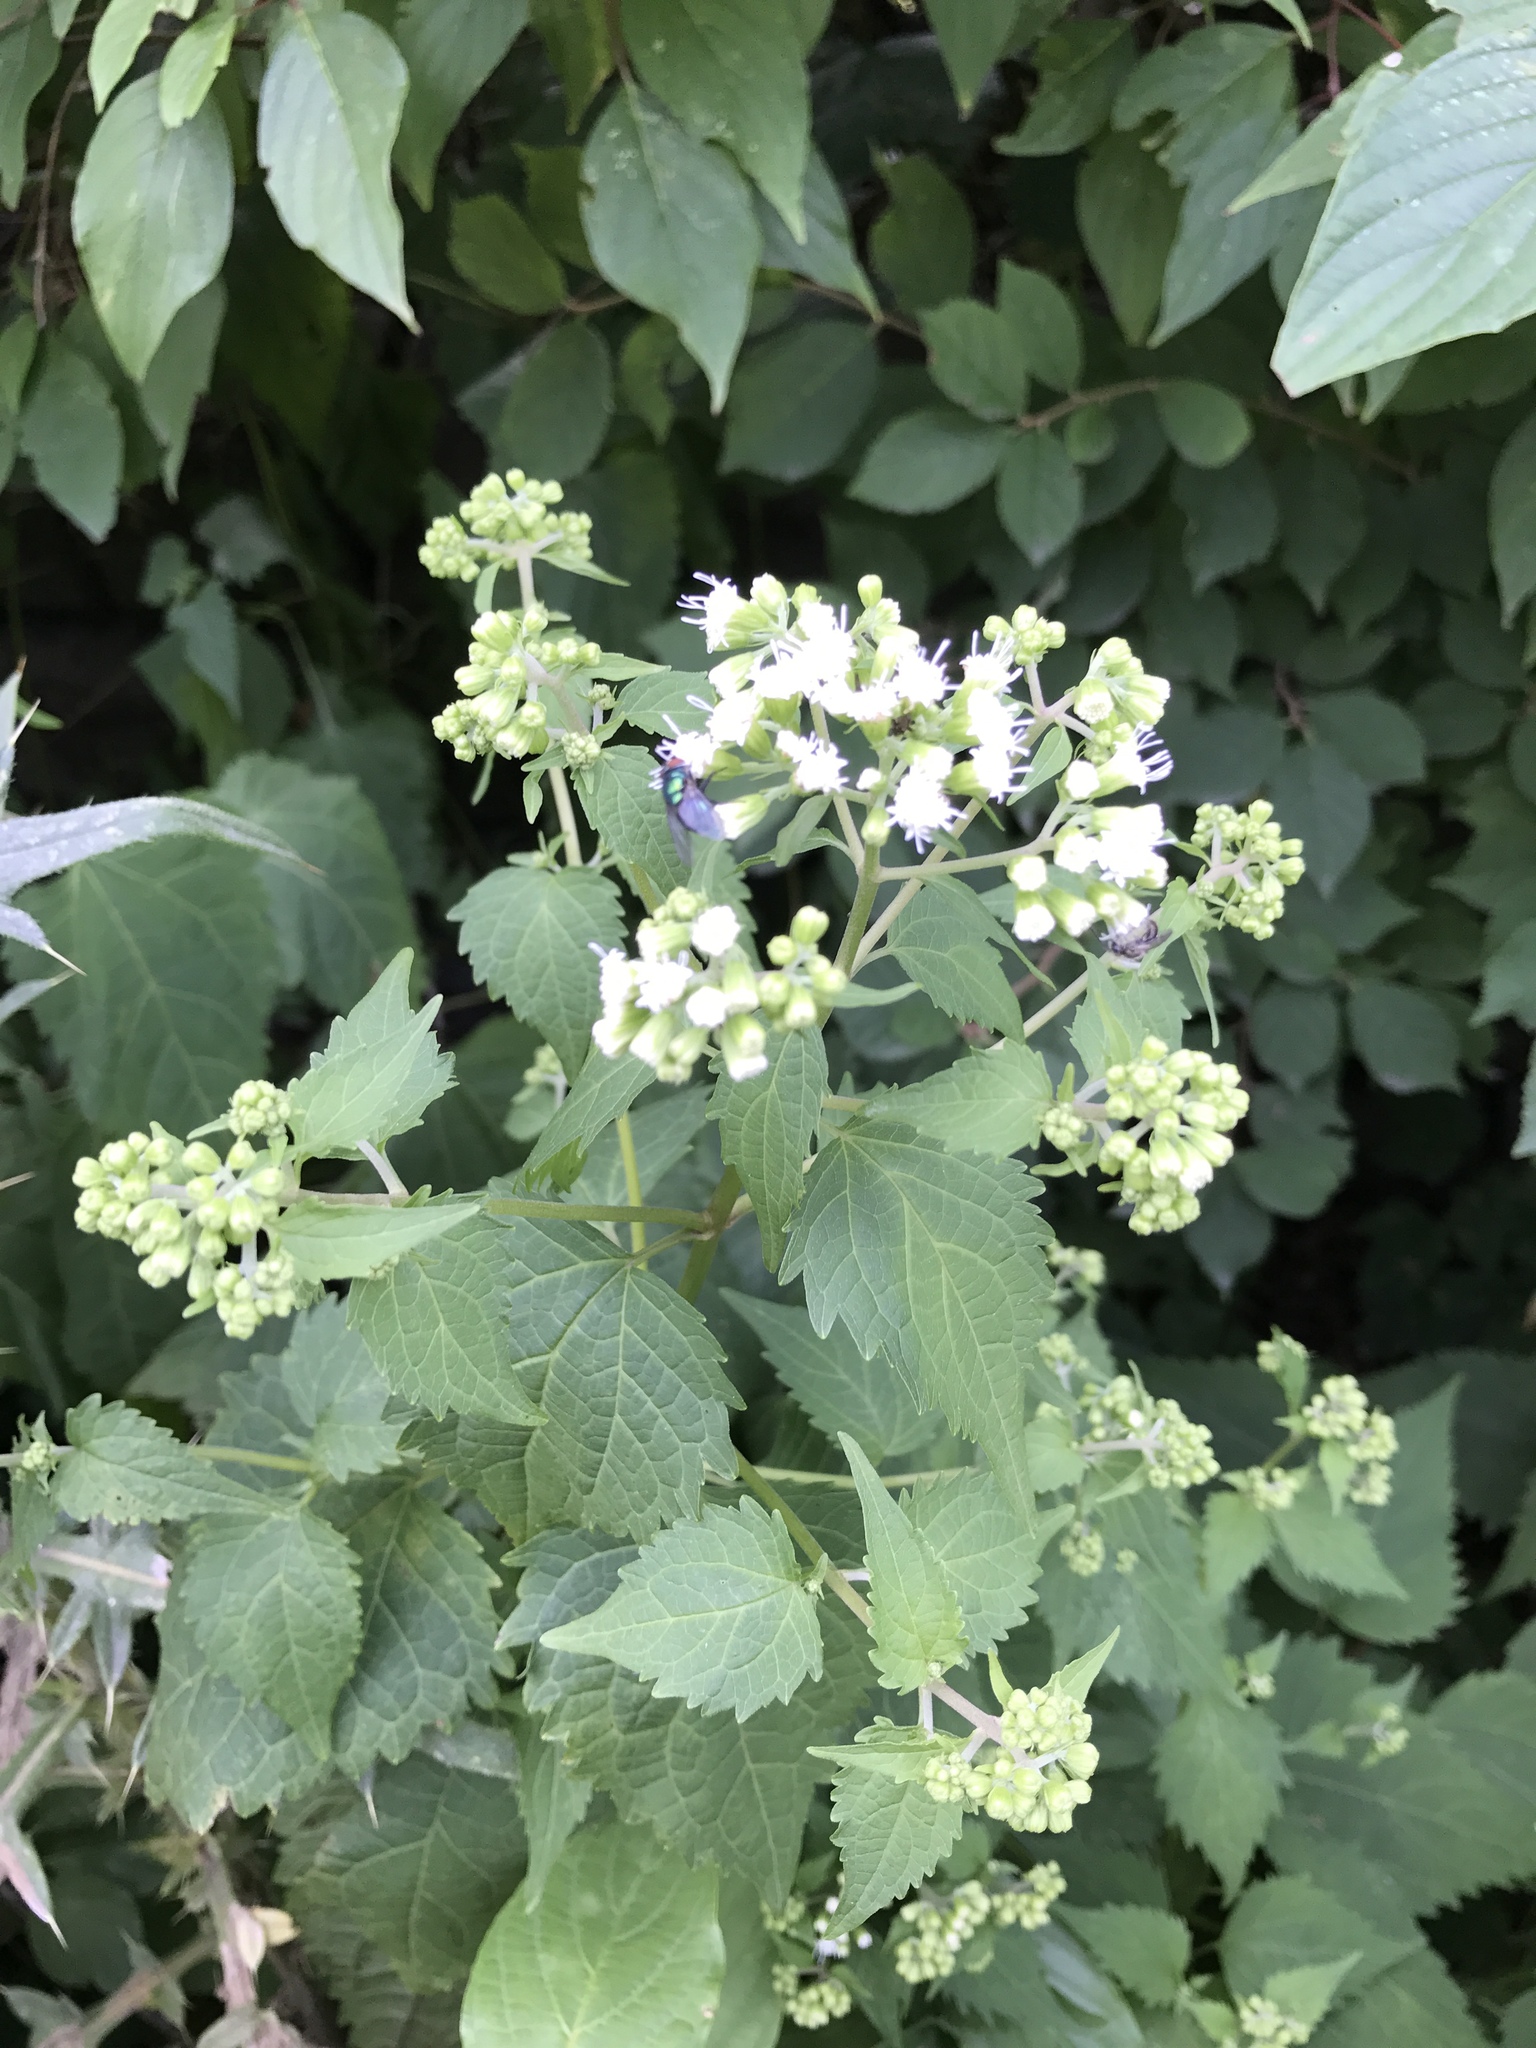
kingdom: Plantae
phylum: Tracheophyta
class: Magnoliopsida
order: Asterales
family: Asteraceae
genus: Ageratina
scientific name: Ageratina altissima
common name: White snakeroot
